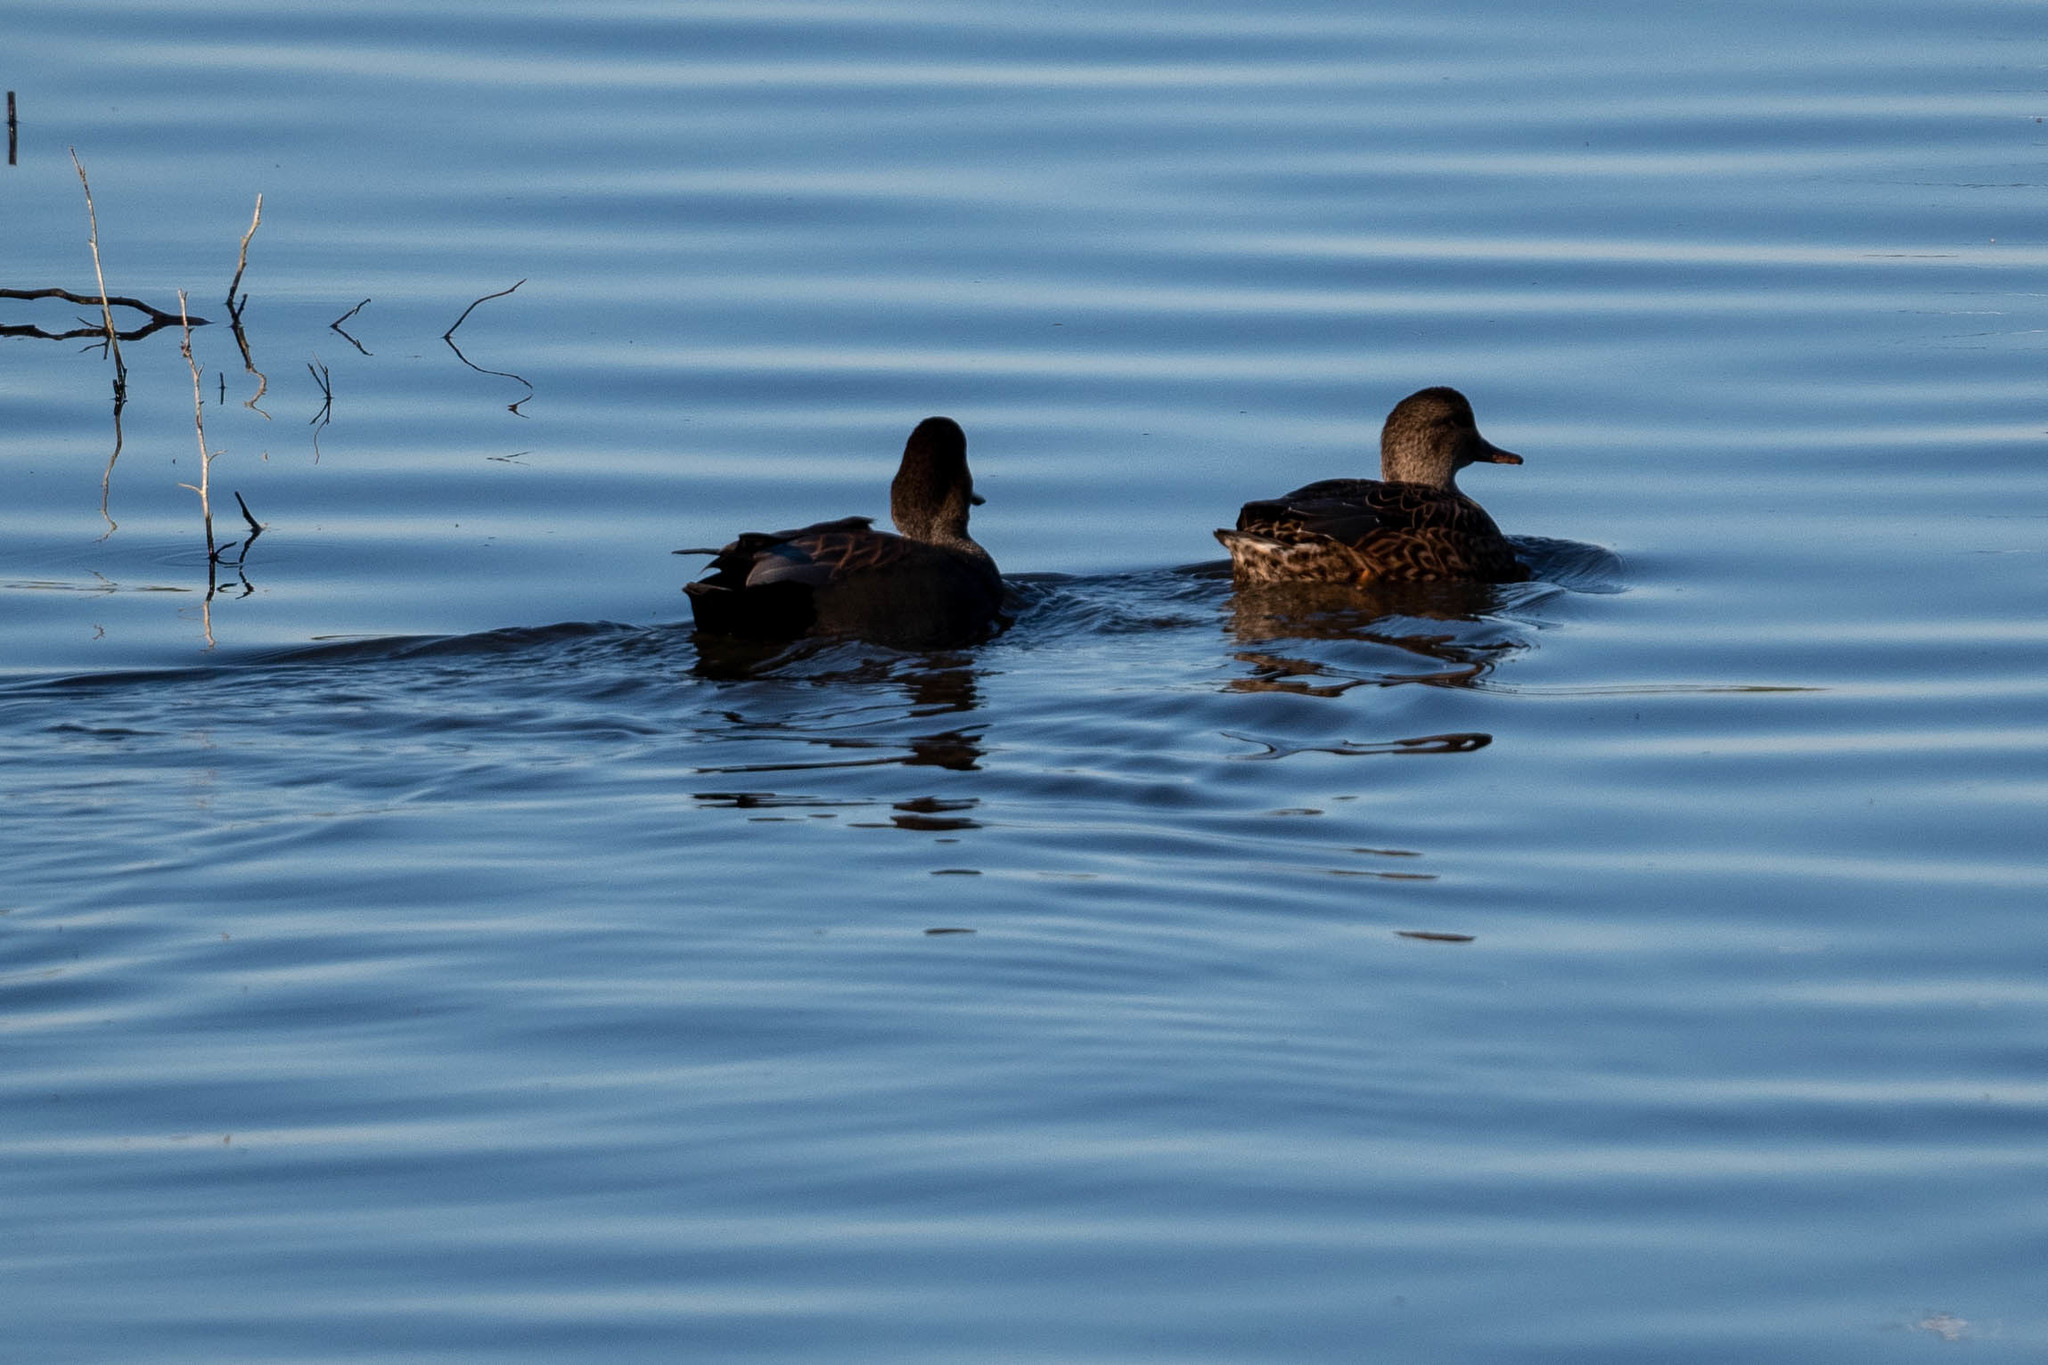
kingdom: Animalia
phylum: Chordata
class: Aves
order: Anseriformes
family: Anatidae
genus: Mareca
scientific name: Mareca strepera
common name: Gadwall
